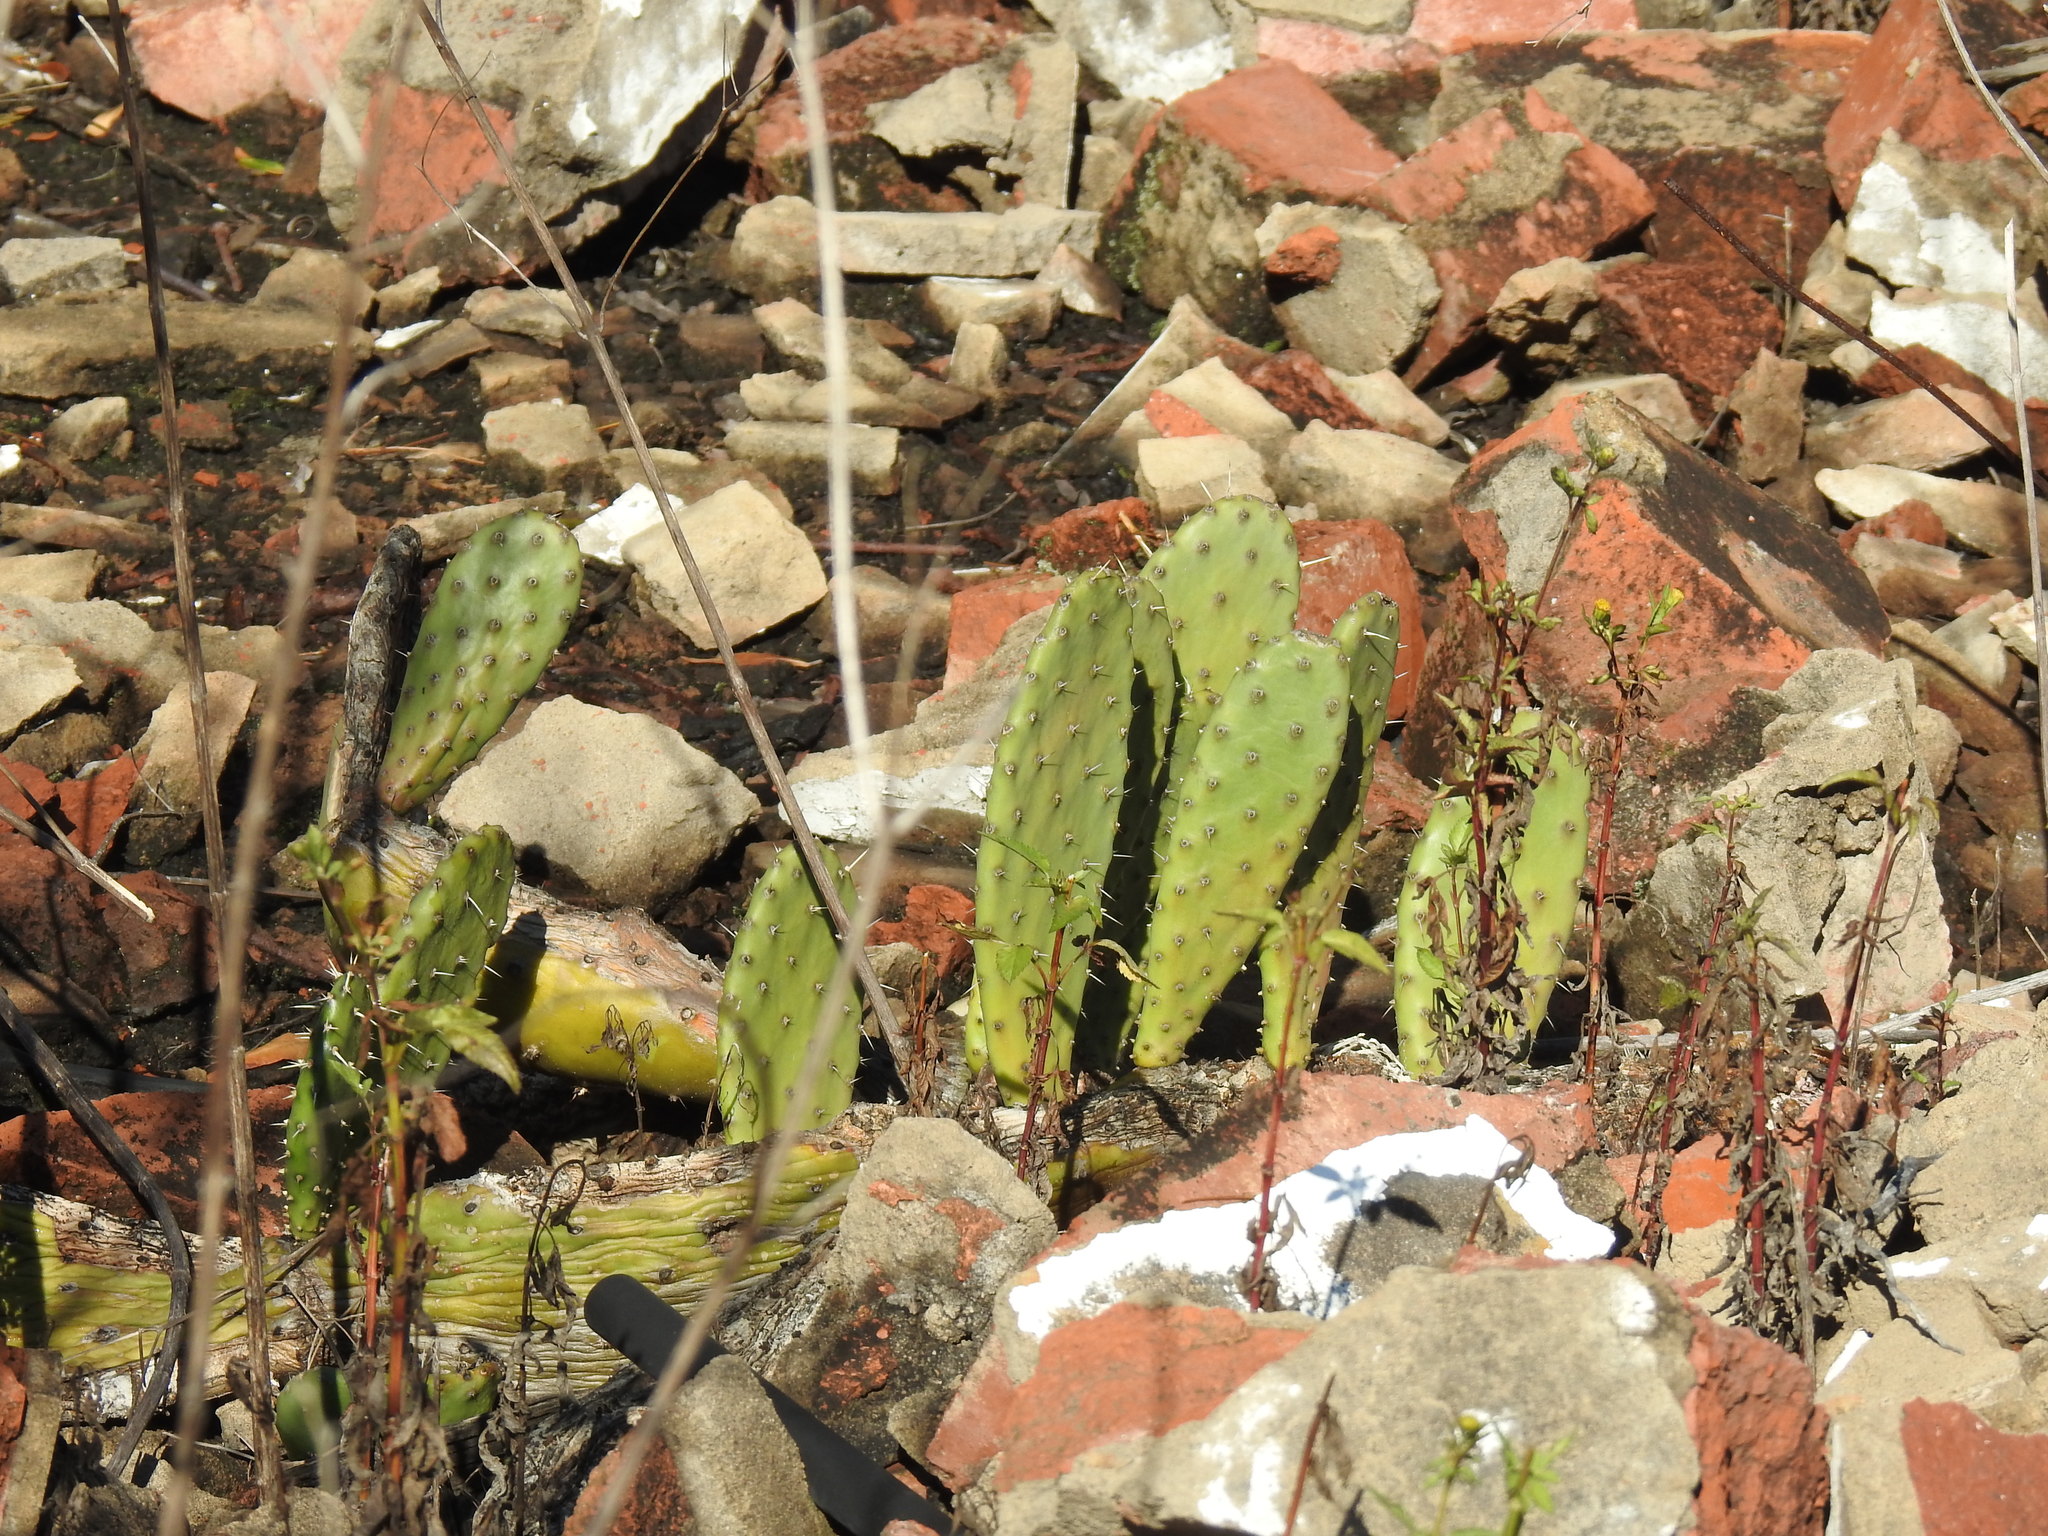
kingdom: Plantae
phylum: Tracheophyta
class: Magnoliopsida
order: Caryophyllales
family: Cactaceae
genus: Opuntia
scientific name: Opuntia ficus-indica
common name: Barbary fig
